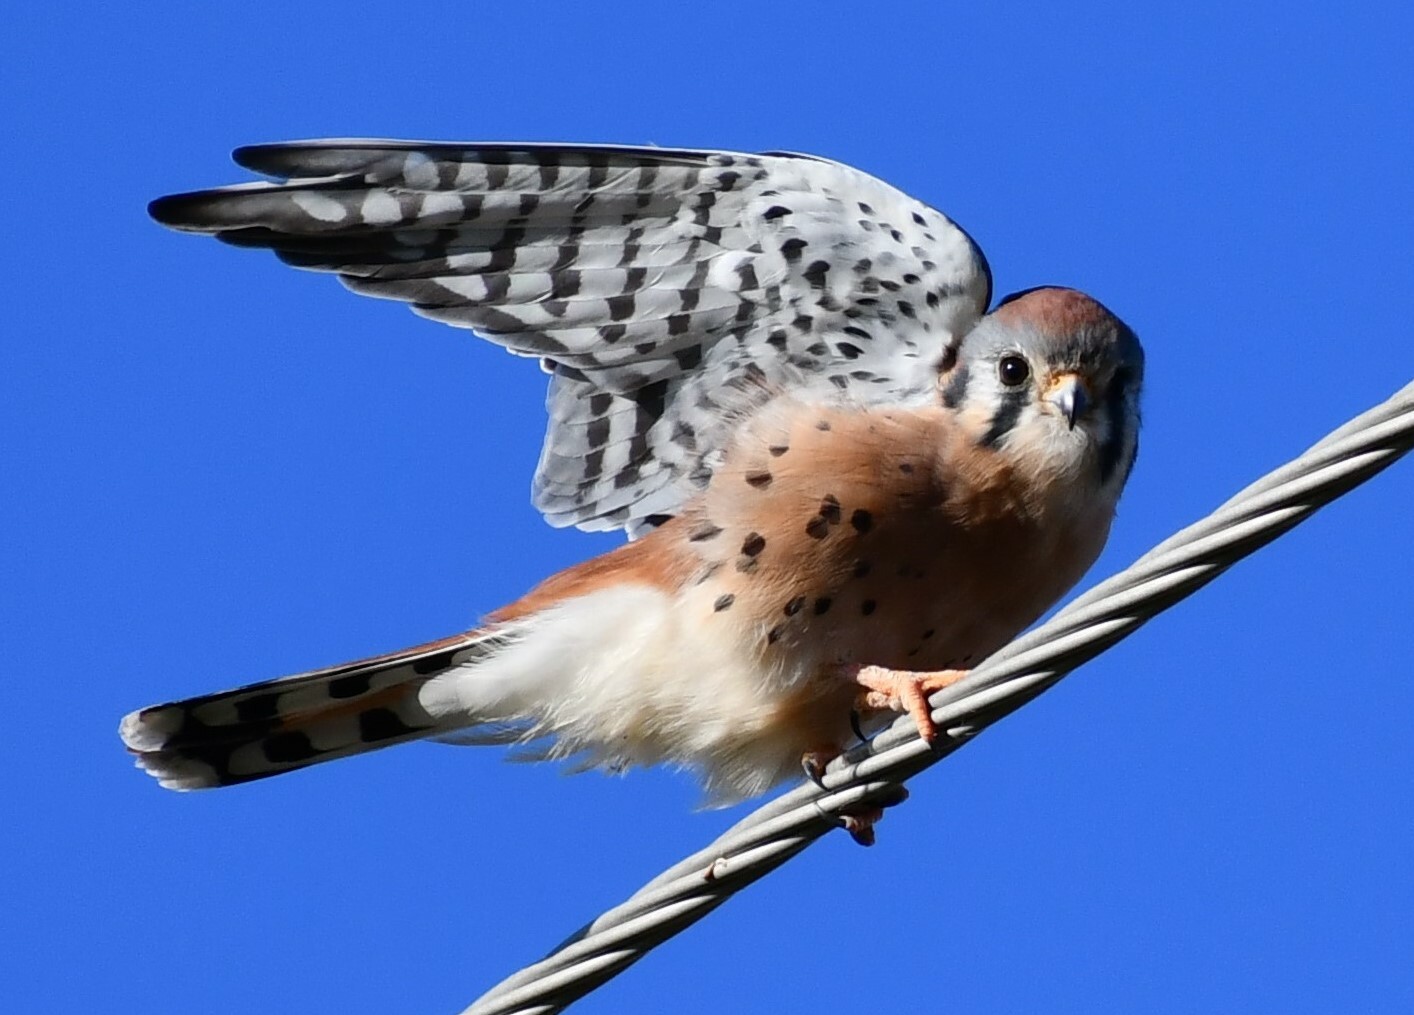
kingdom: Animalia
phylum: Chordata
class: Aves
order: Falconiformes
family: Falconidae
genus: Falco
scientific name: Falco sparverius
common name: American kestrel
